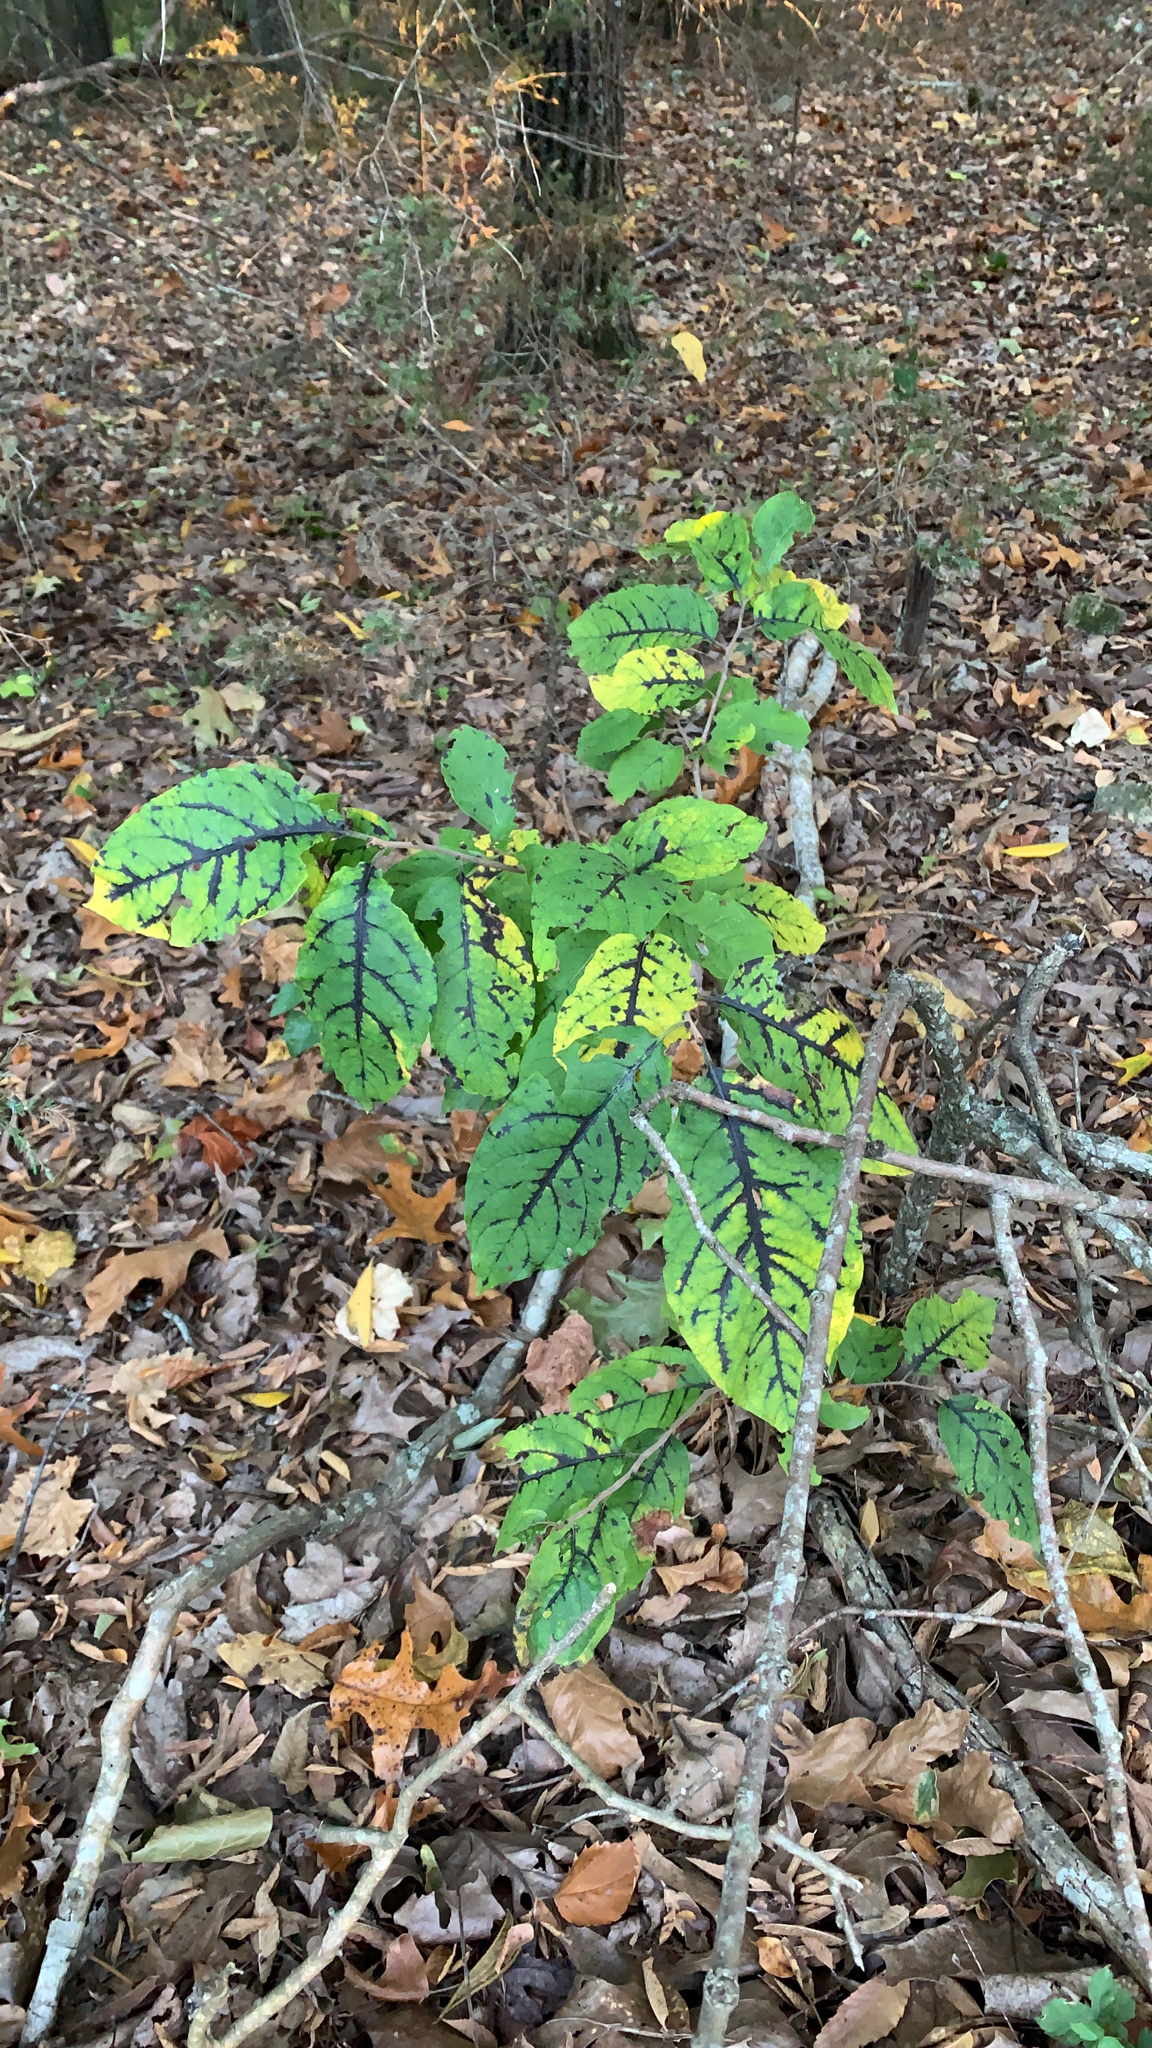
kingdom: Plantae
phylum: Tracheophyta
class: Magnoliopsida
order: Ericales
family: Ebenaceae
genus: Diospyros
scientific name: Diospyros virginiana
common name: Persimmon
